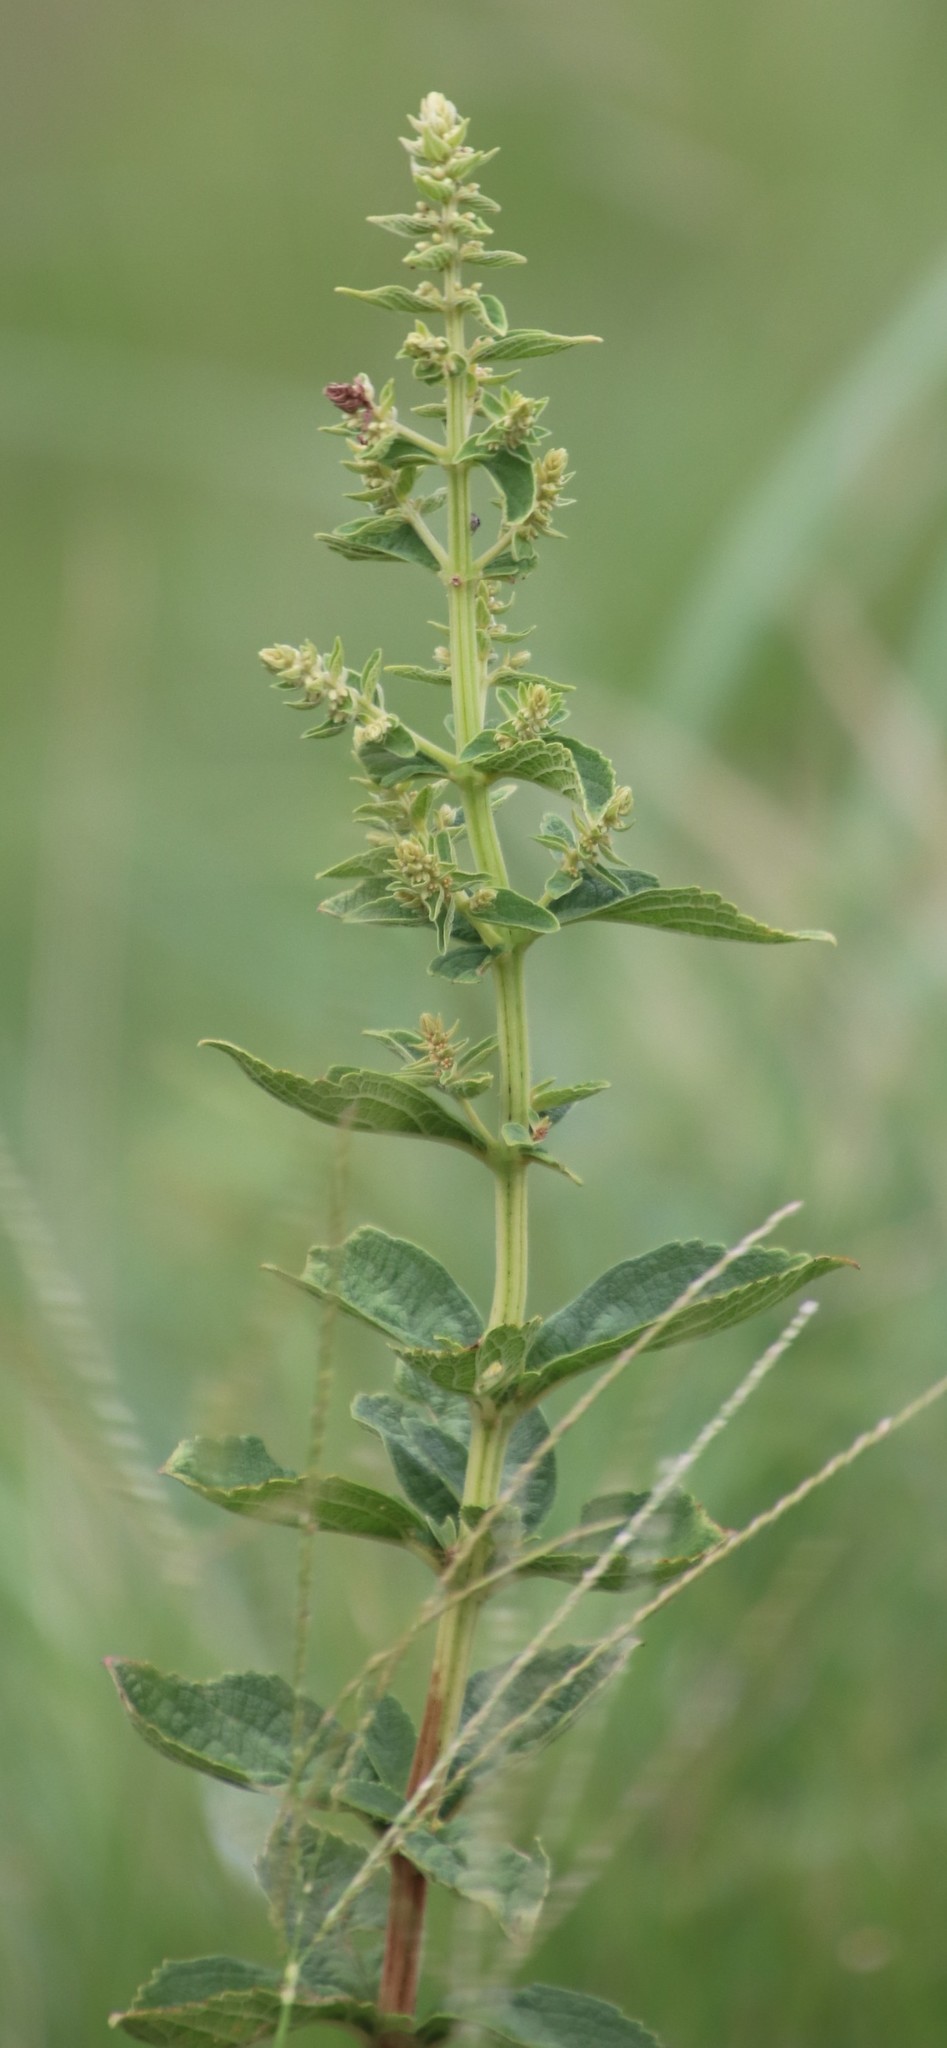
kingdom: Plantae
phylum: Tracheophyta
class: Magnoliopsida
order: Lamiales
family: Lamiaceae
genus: Coleus
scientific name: Coleus calycinus
